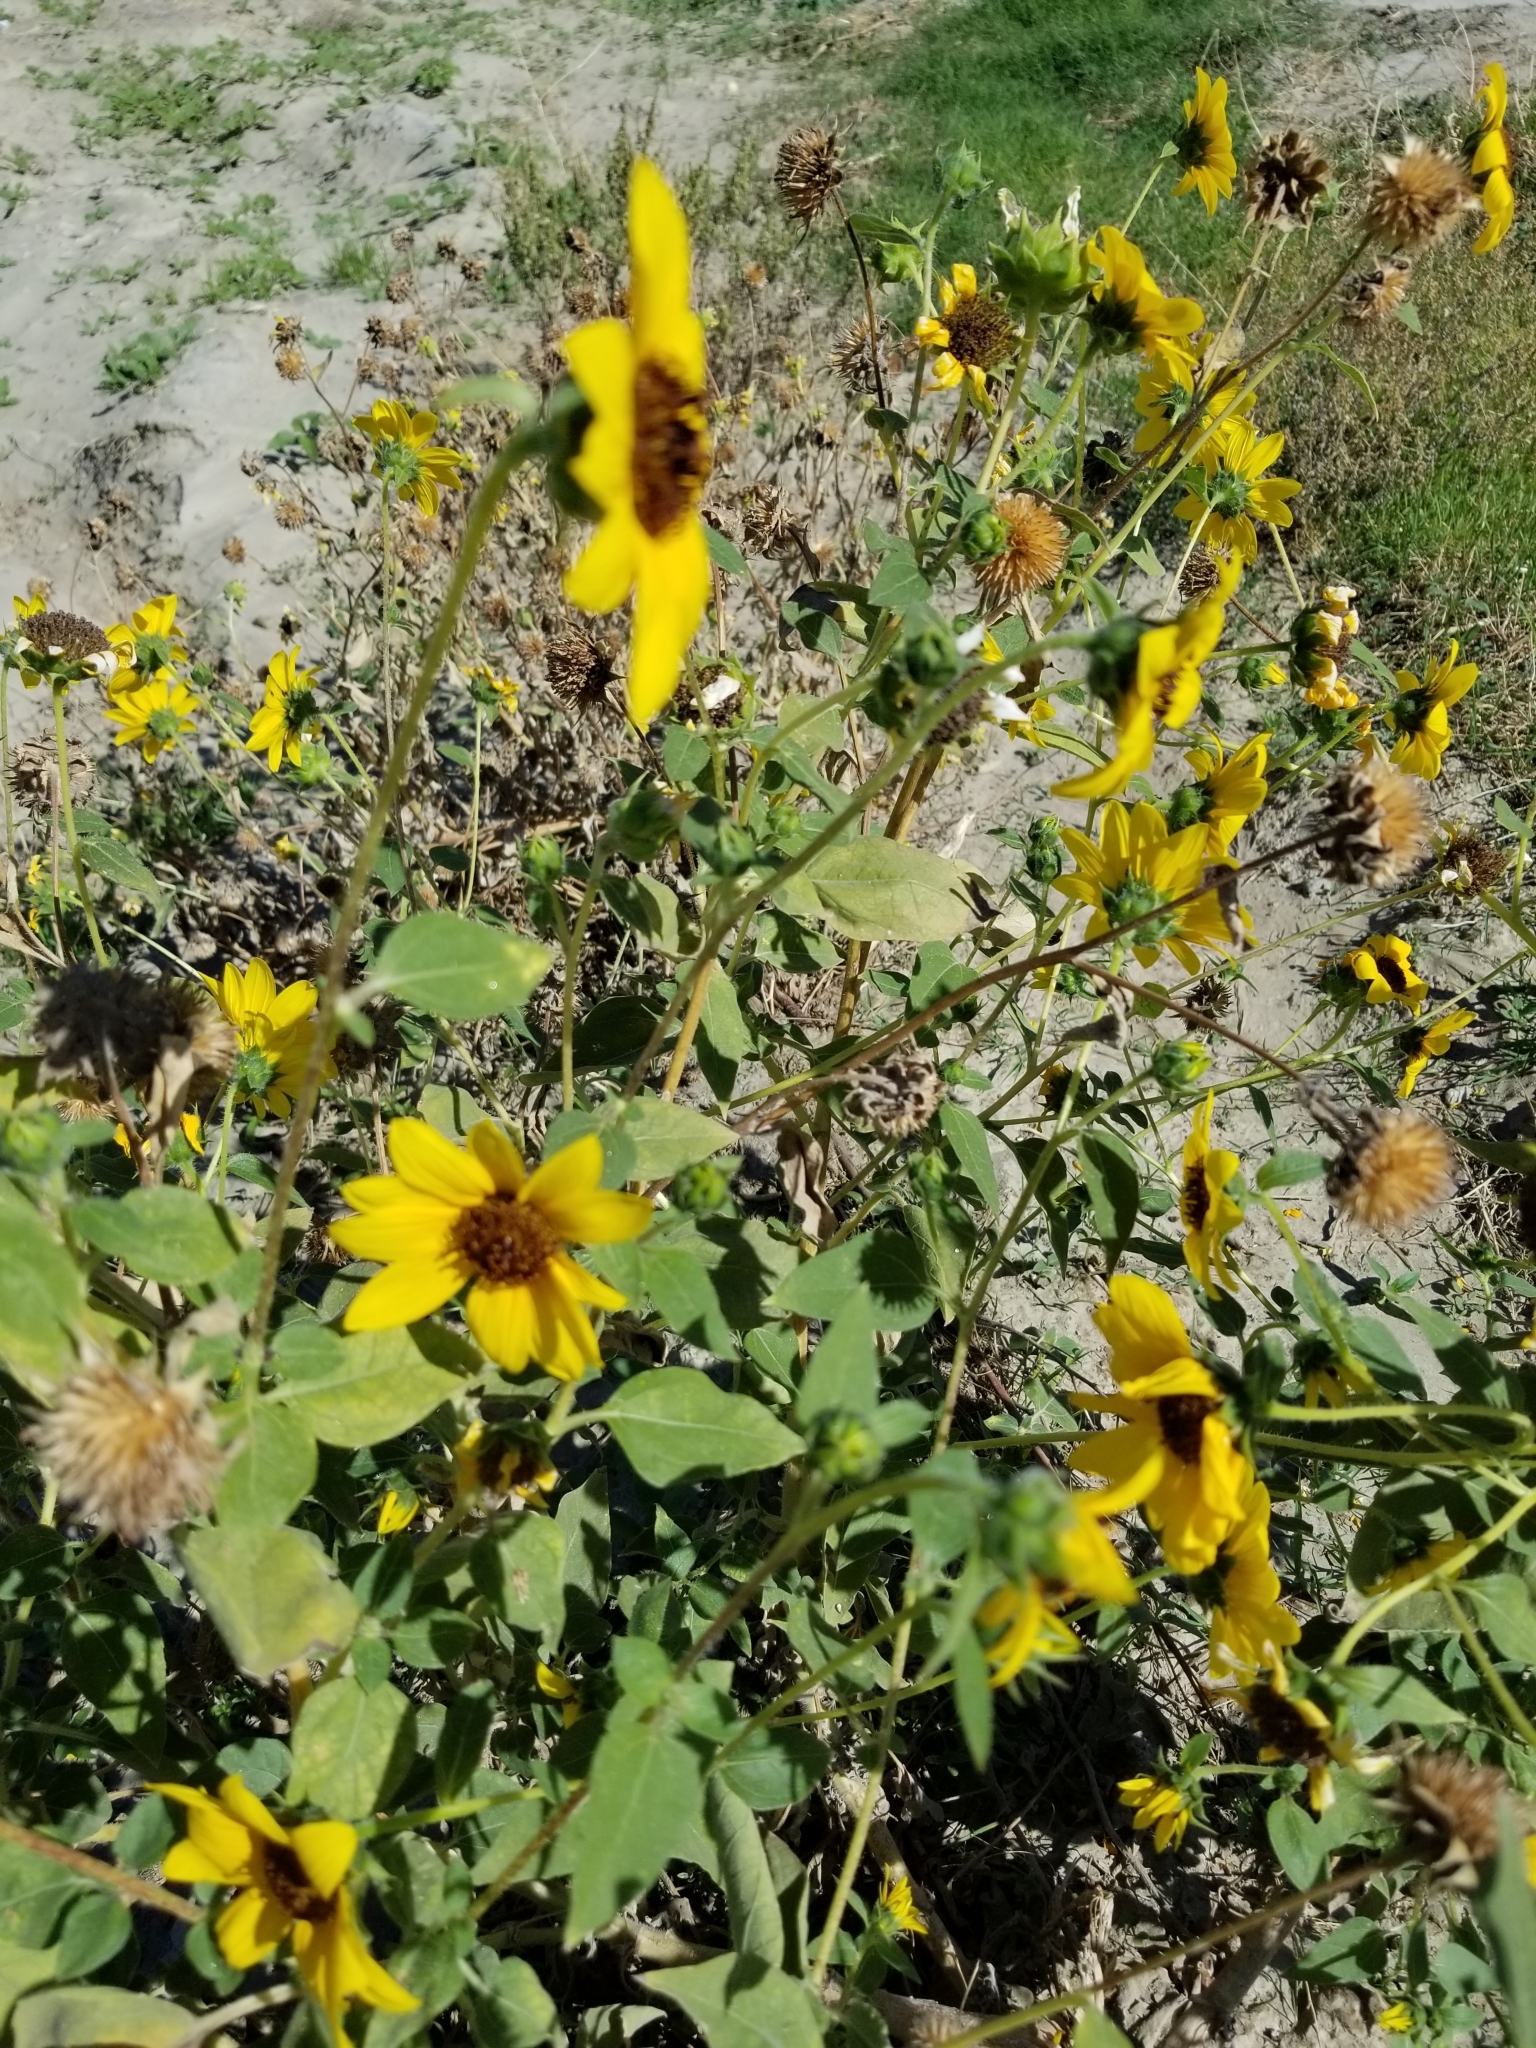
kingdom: Plantae
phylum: Tracheophyta
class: Magnoliopsida
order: Asterales
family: Asteraceae
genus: Helianthus
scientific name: Helianthus annuus
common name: Sunflower
